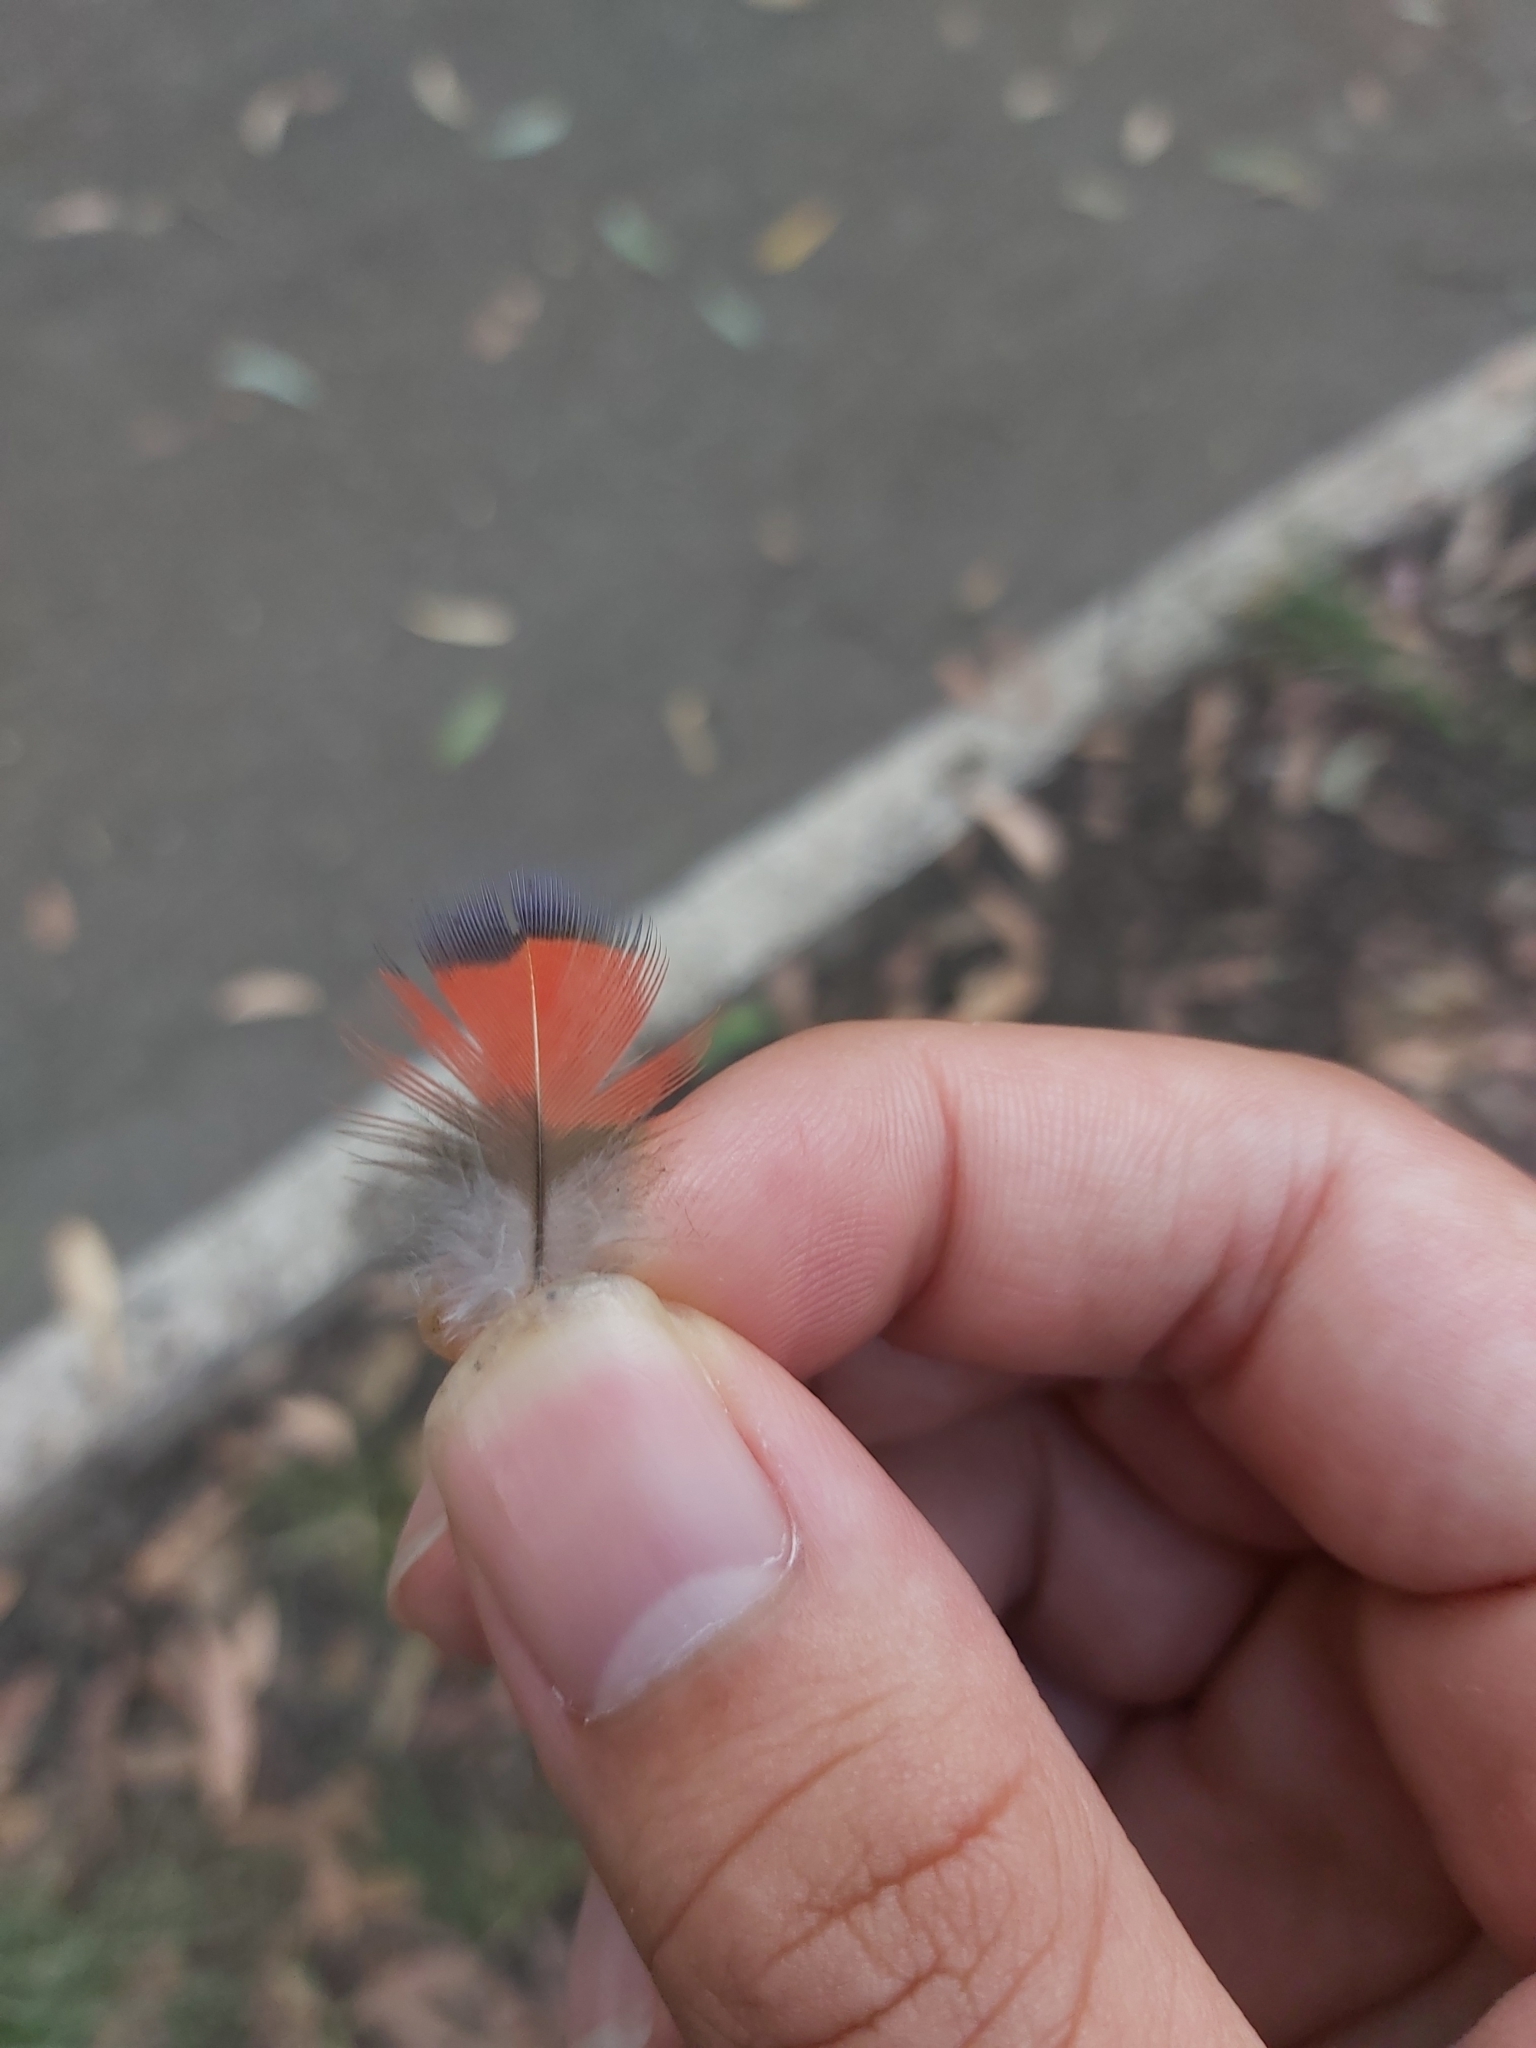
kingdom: Animalia
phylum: Chordata
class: Aves
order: Psittaciformes
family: Psittacidae
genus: Trichoglossus
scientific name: Trichoglossus haematodus
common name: Coconut lorikeet
